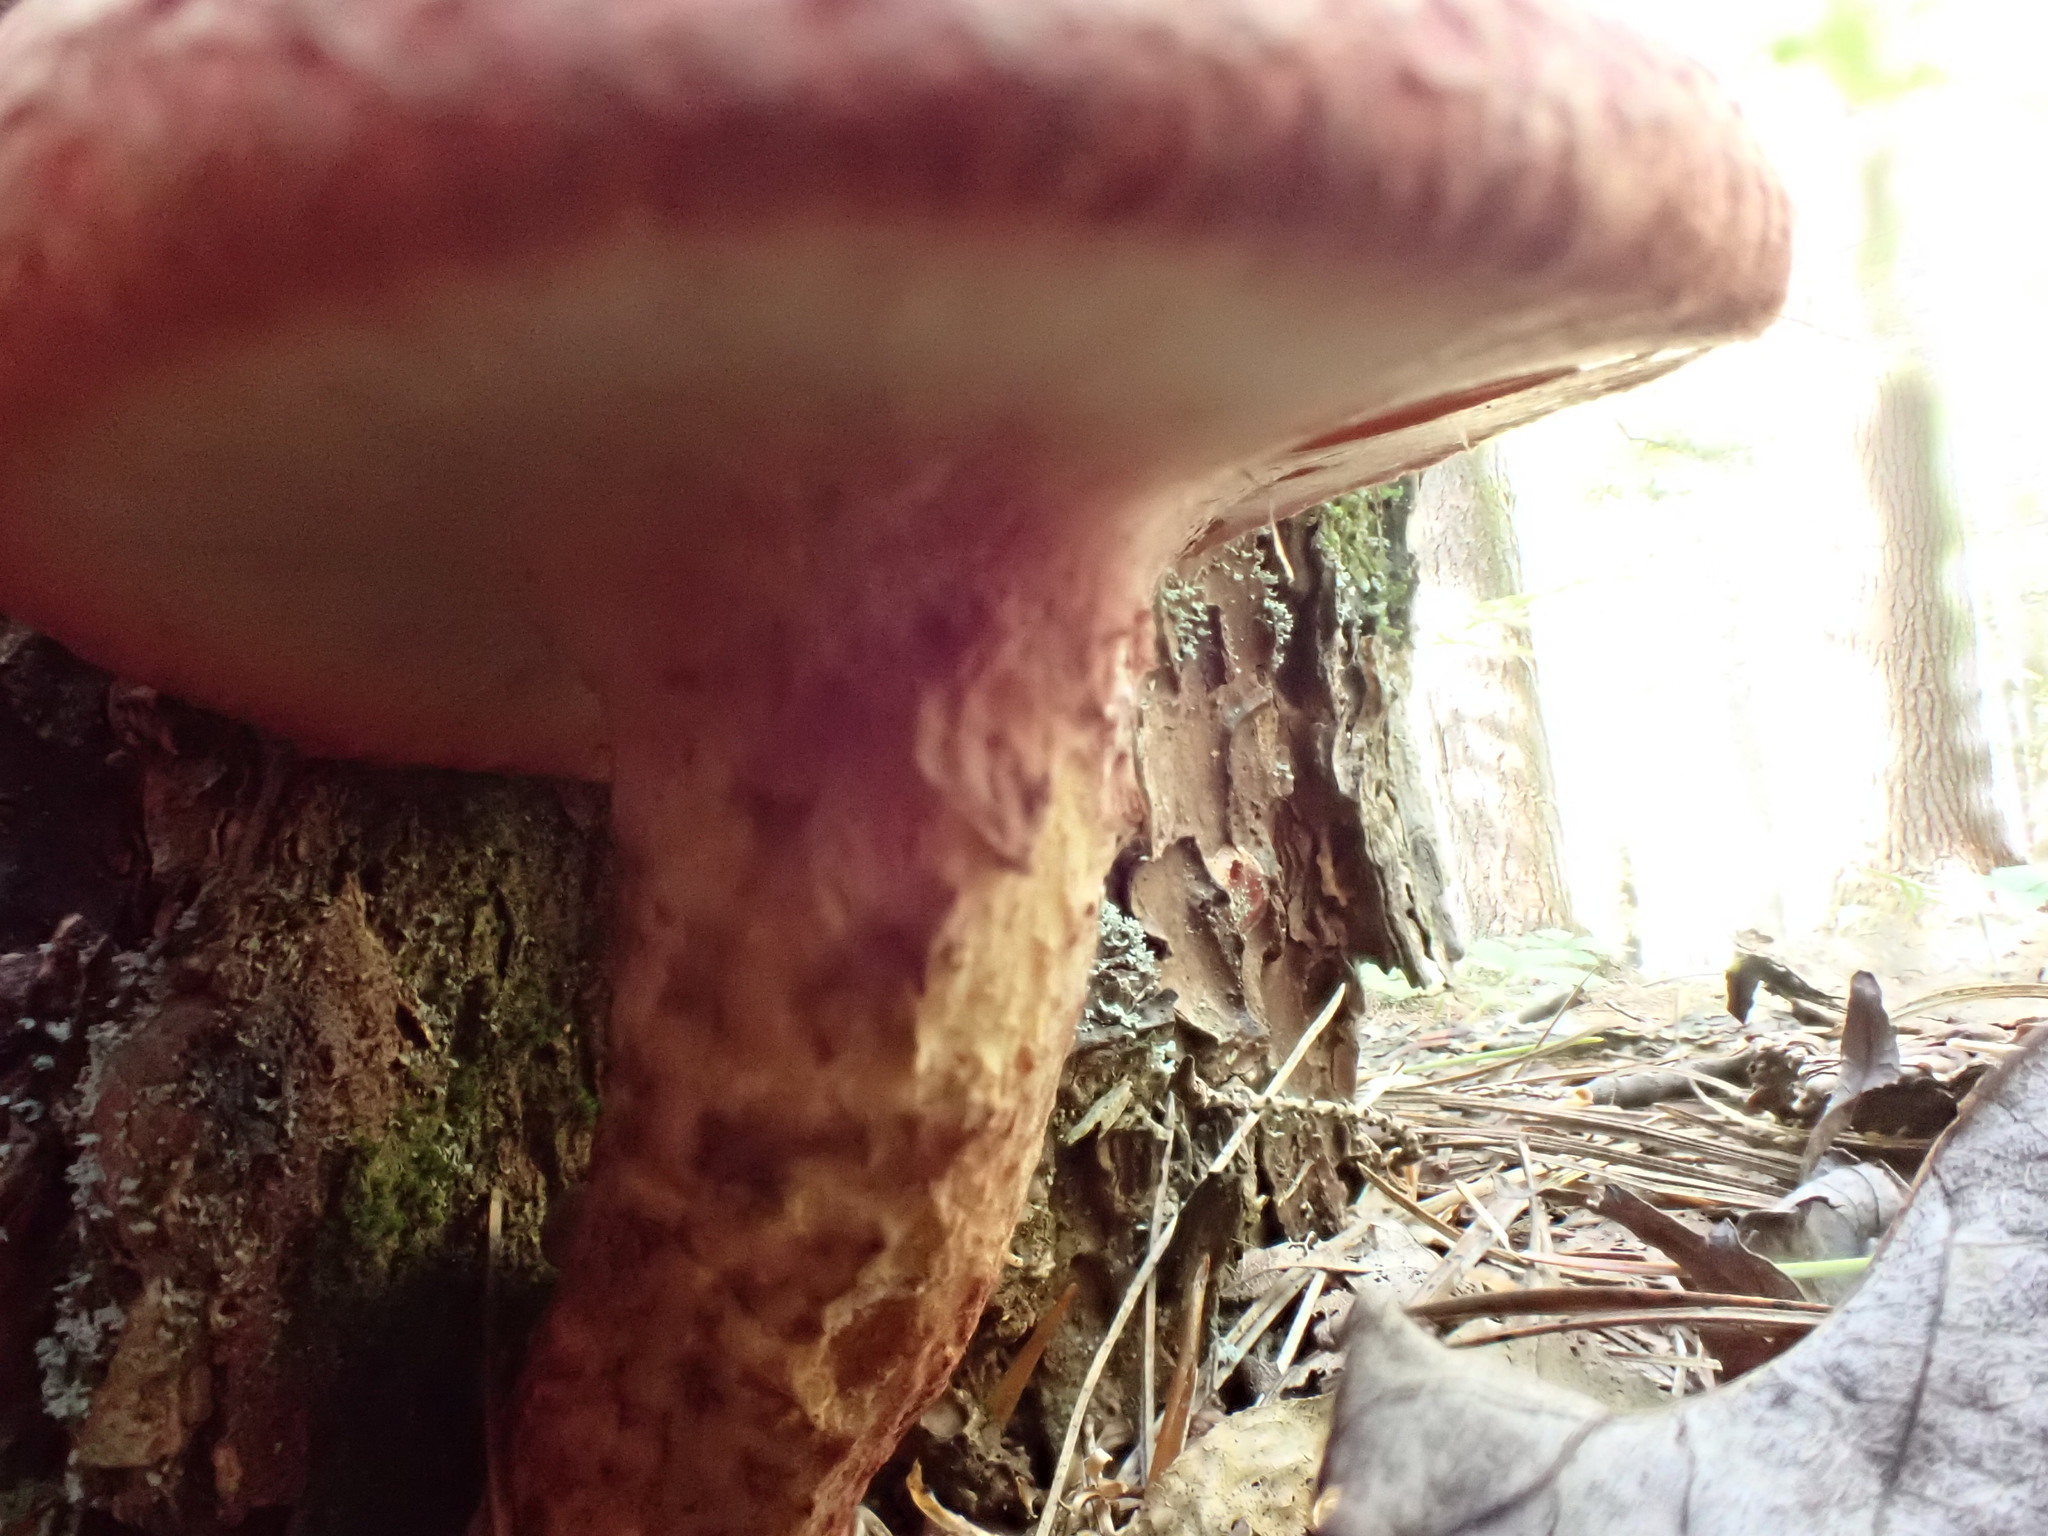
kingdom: Fungi
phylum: Basidiomycota
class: Agaricomycetes
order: Boletales
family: Suillaceae
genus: Suillus
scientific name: Suillus spraguei
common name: Painted suillus
